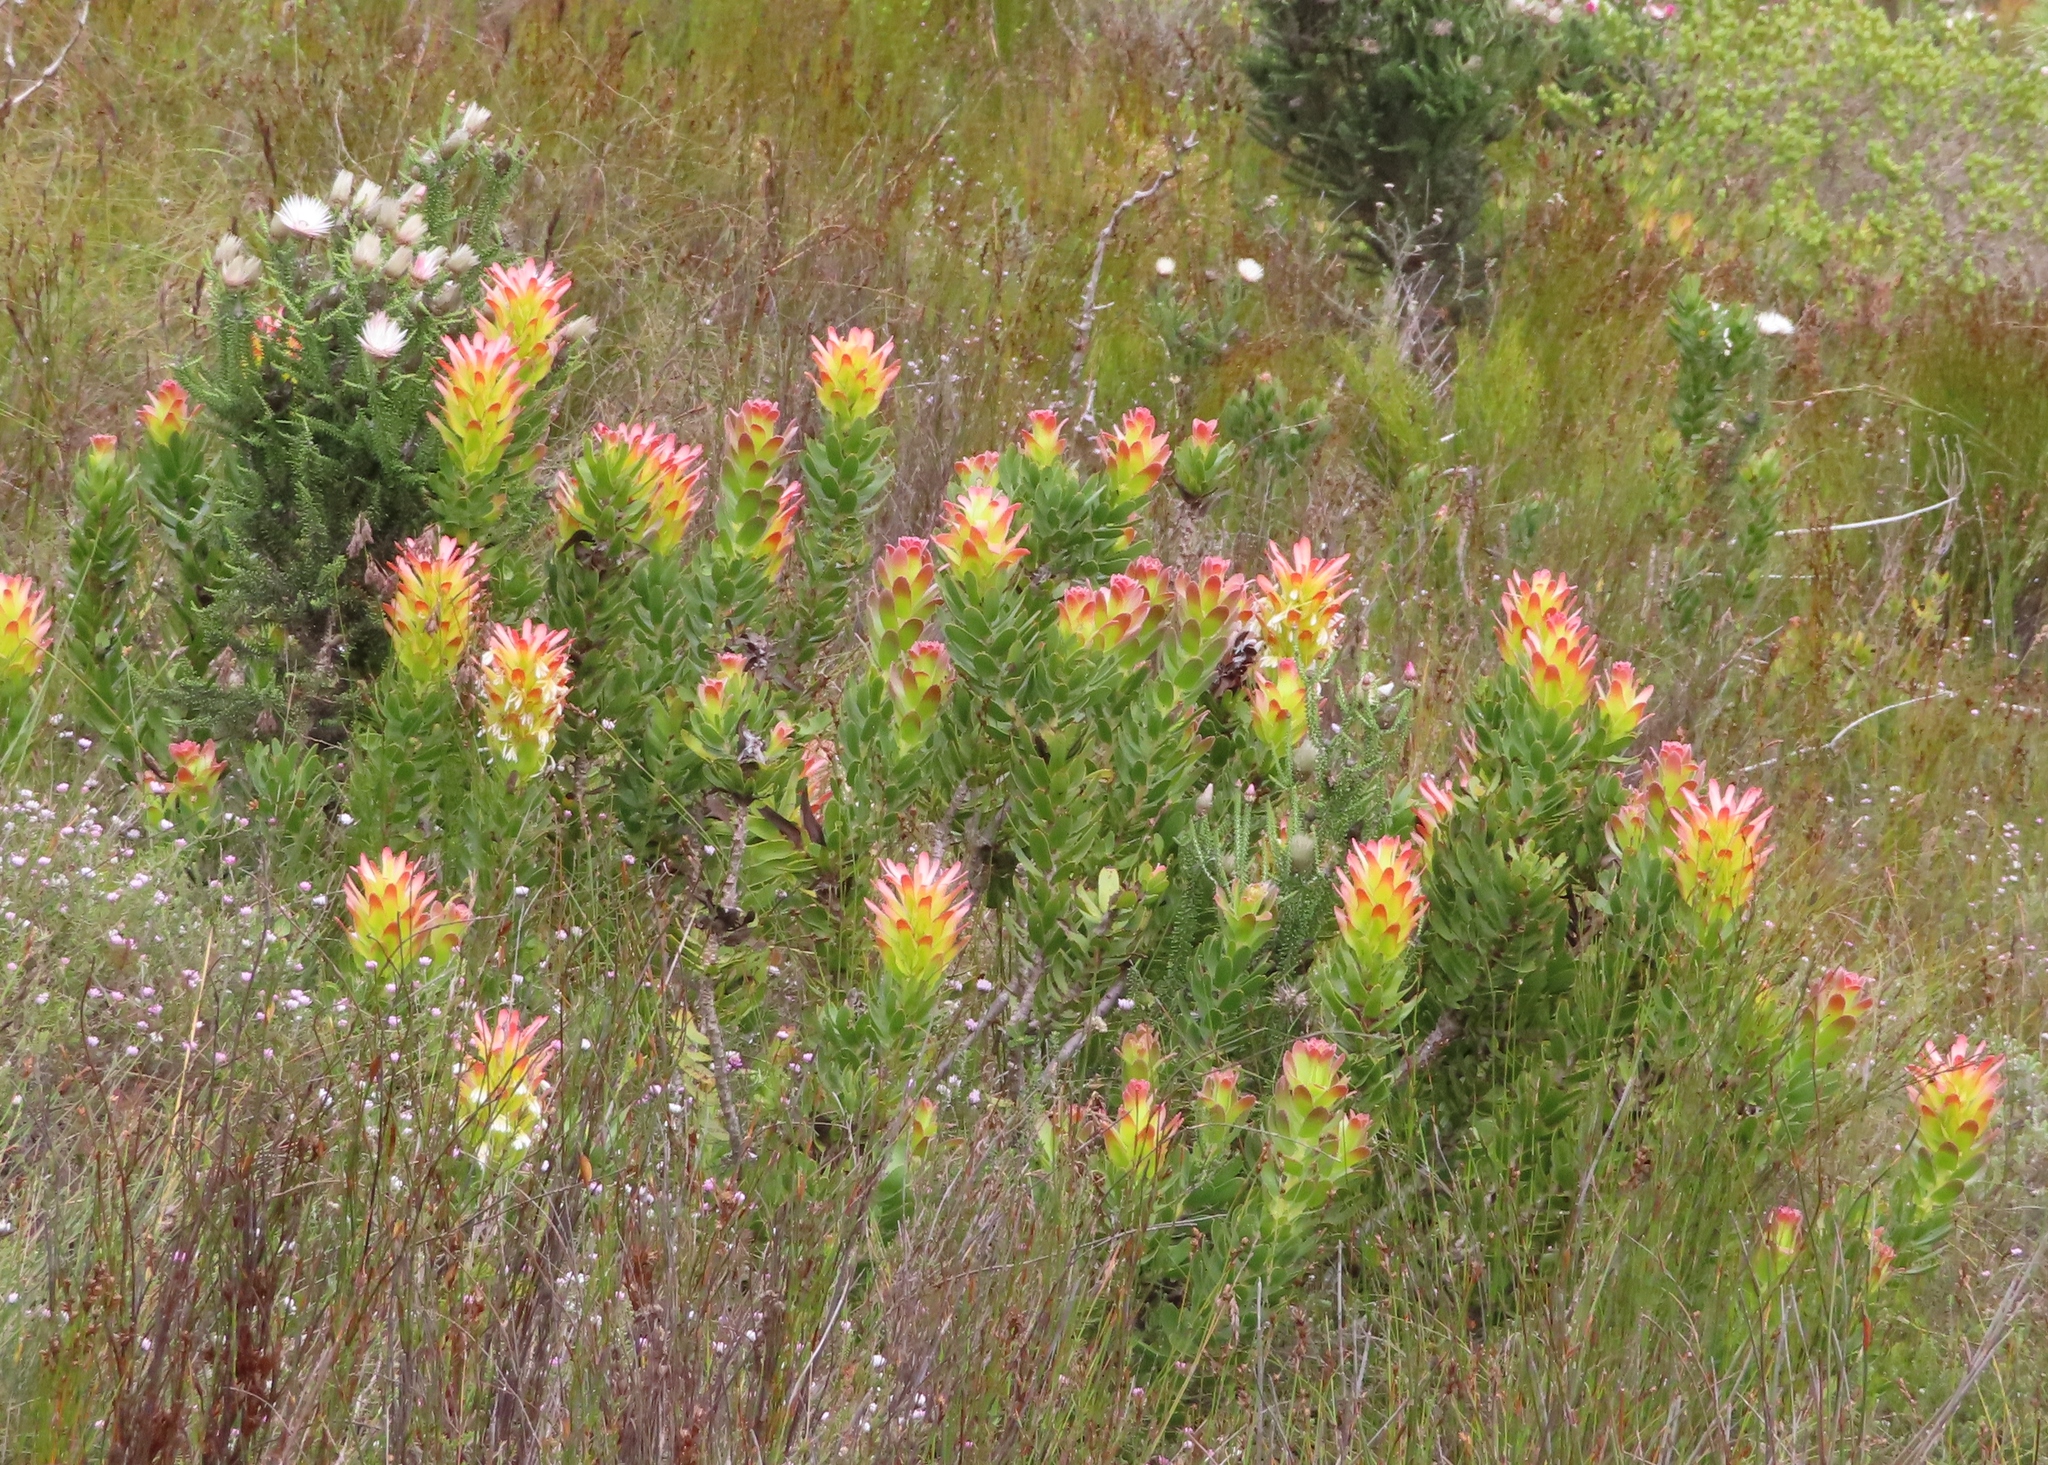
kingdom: Plantae
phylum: Tracheophyta
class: Magnoliopsida
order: Proteales
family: Proteaceae
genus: Mimetes
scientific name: Mimetes cucullatus
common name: Common pagoda
